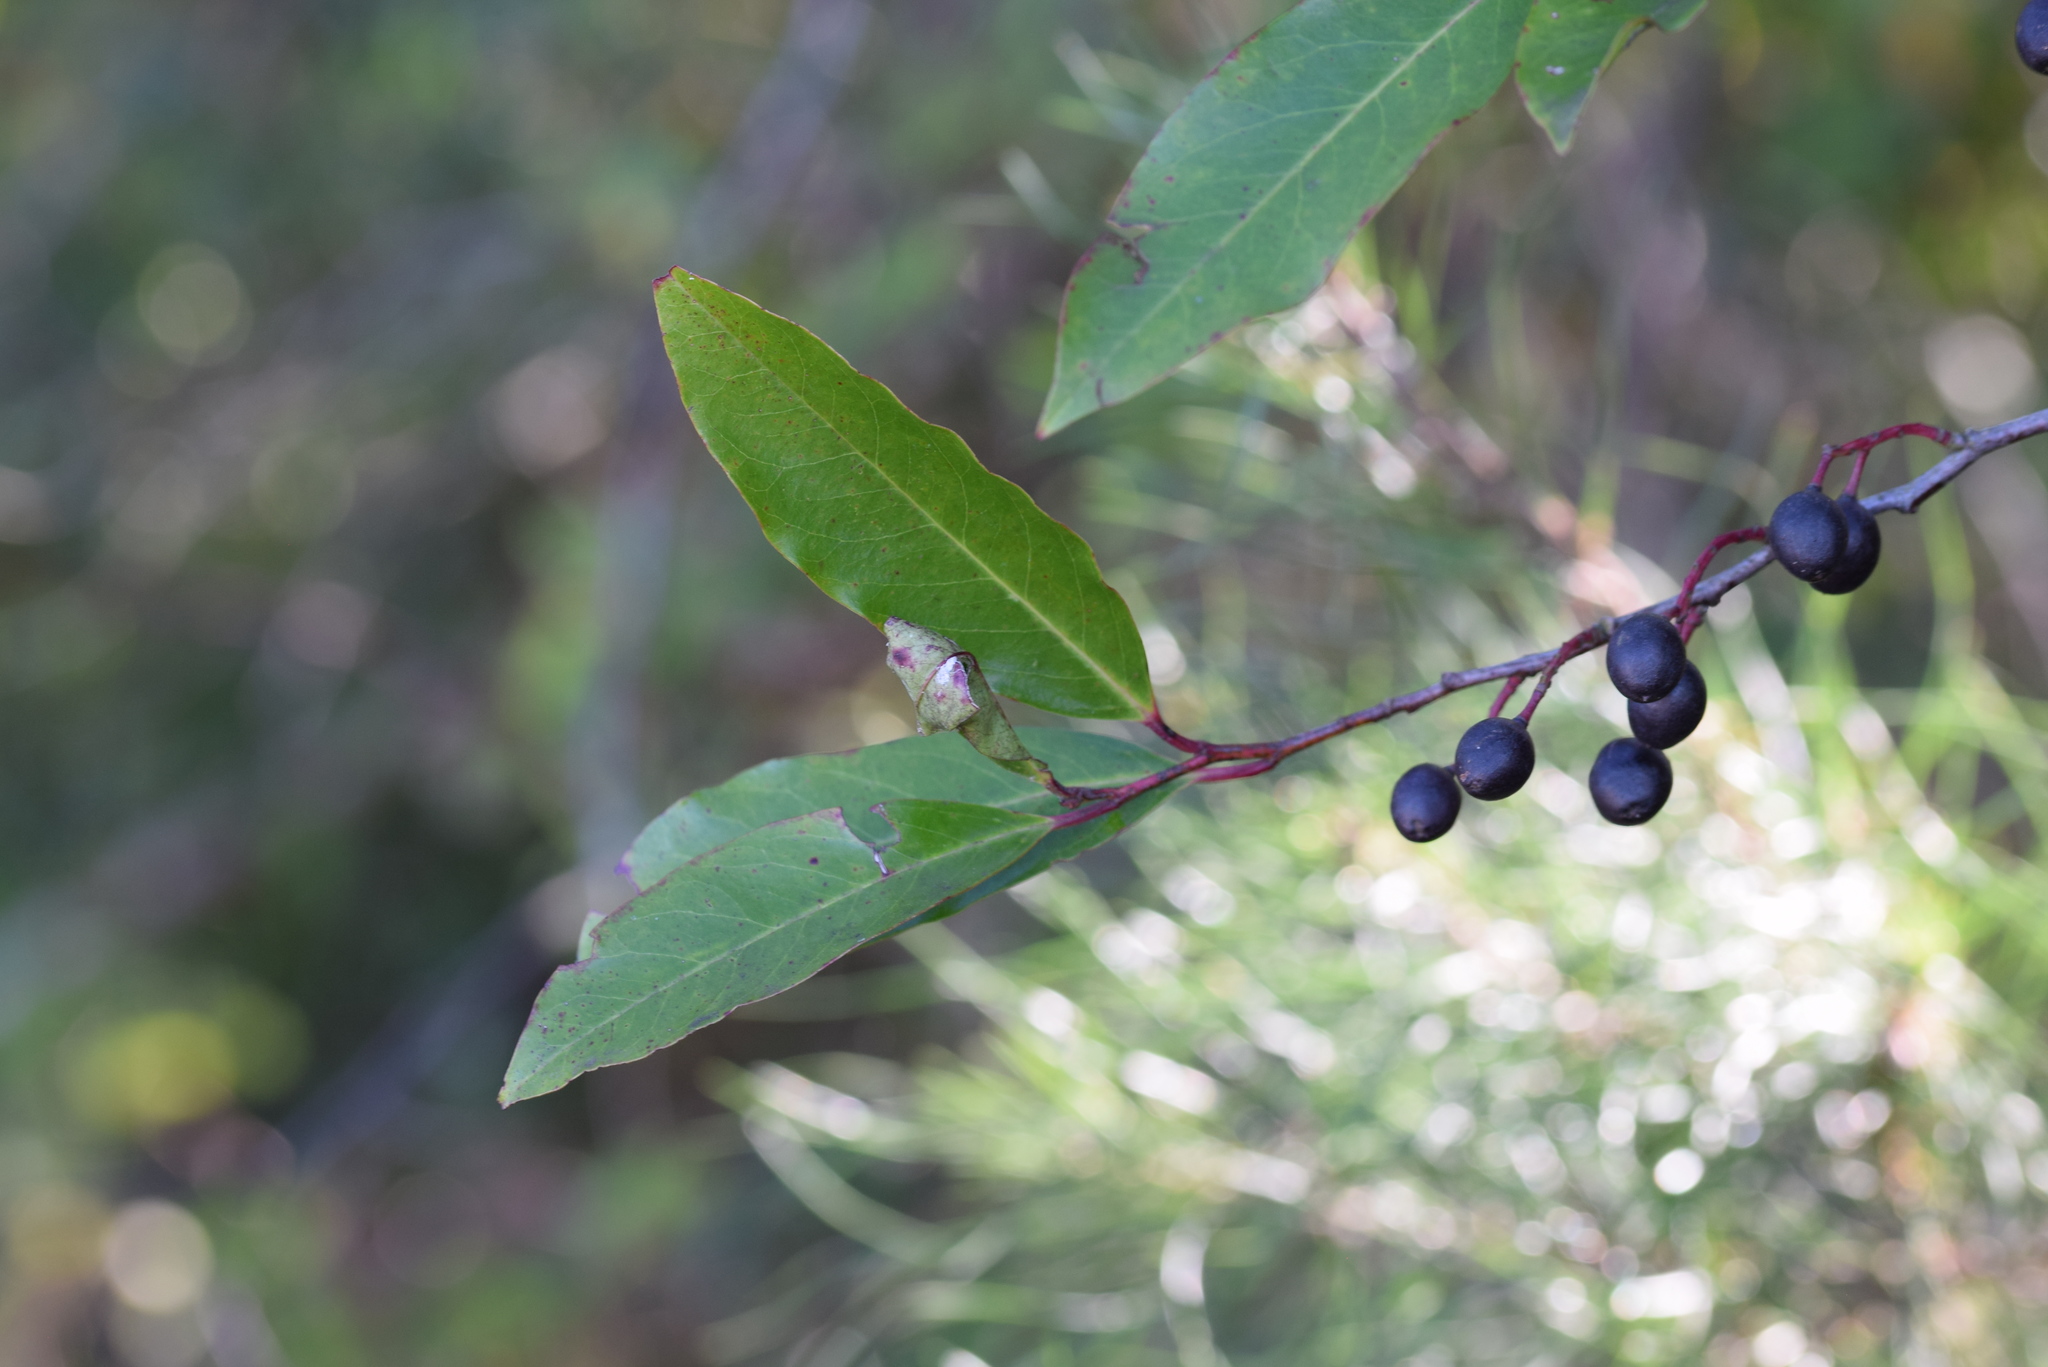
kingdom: Plantae
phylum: Tracheophyta
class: Magnoliopsida
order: Rosales
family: Rosaceae
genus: Prunus
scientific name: Prunus caroliniana
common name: Carolina laurel cherry
